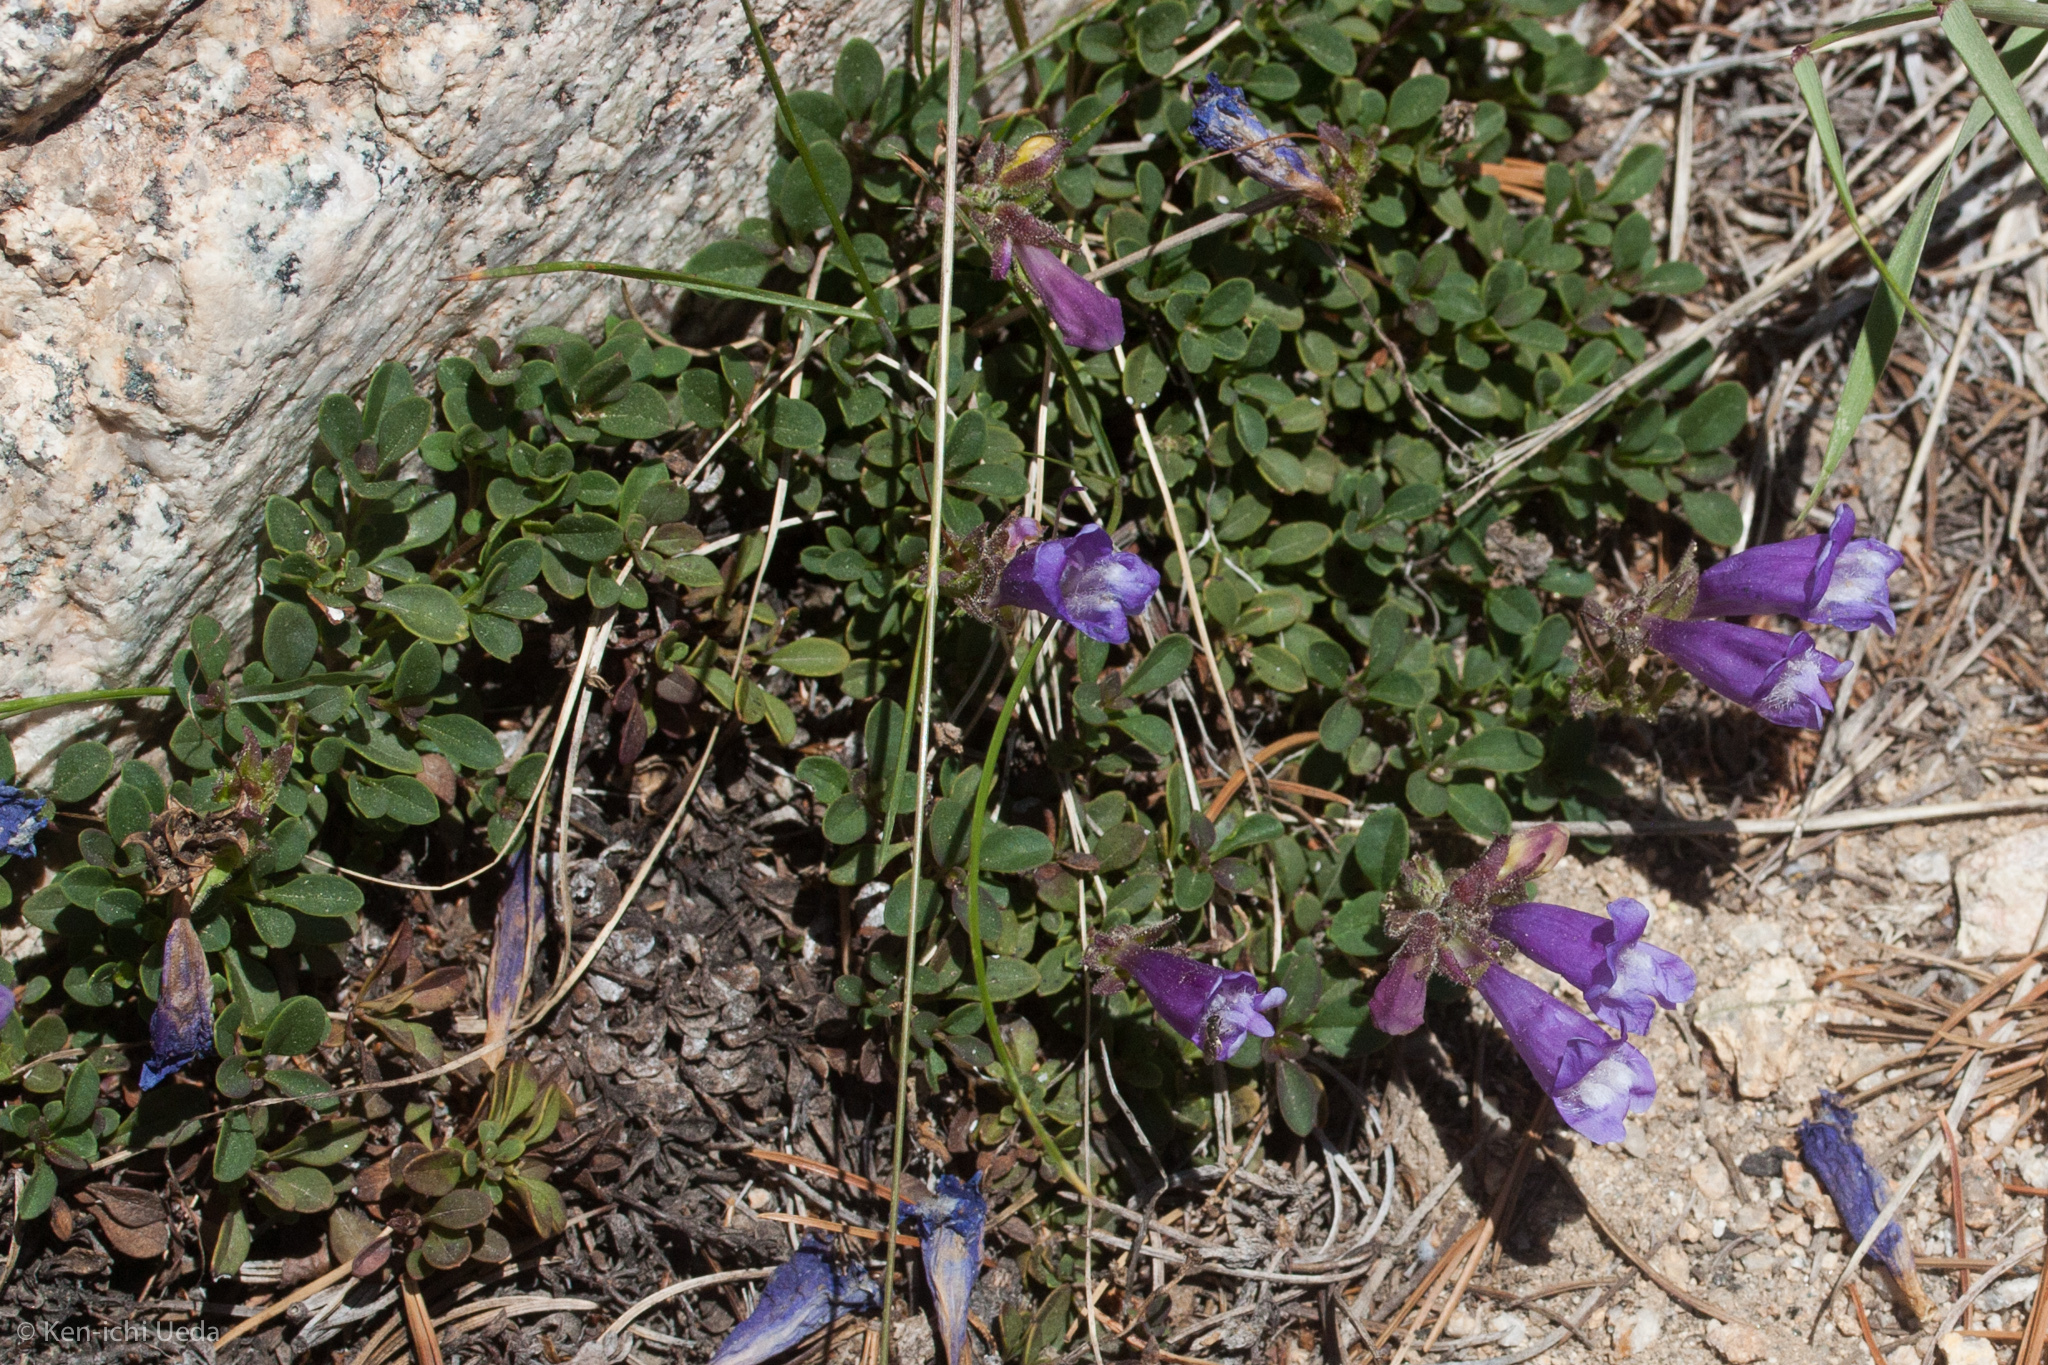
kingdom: Plantae
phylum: Tracheophyta
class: Magnoliopsida
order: Lamiales
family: Plantaginaceae
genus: Penstemon
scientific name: Penstemon davidsonii
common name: Davidson's penstemon
